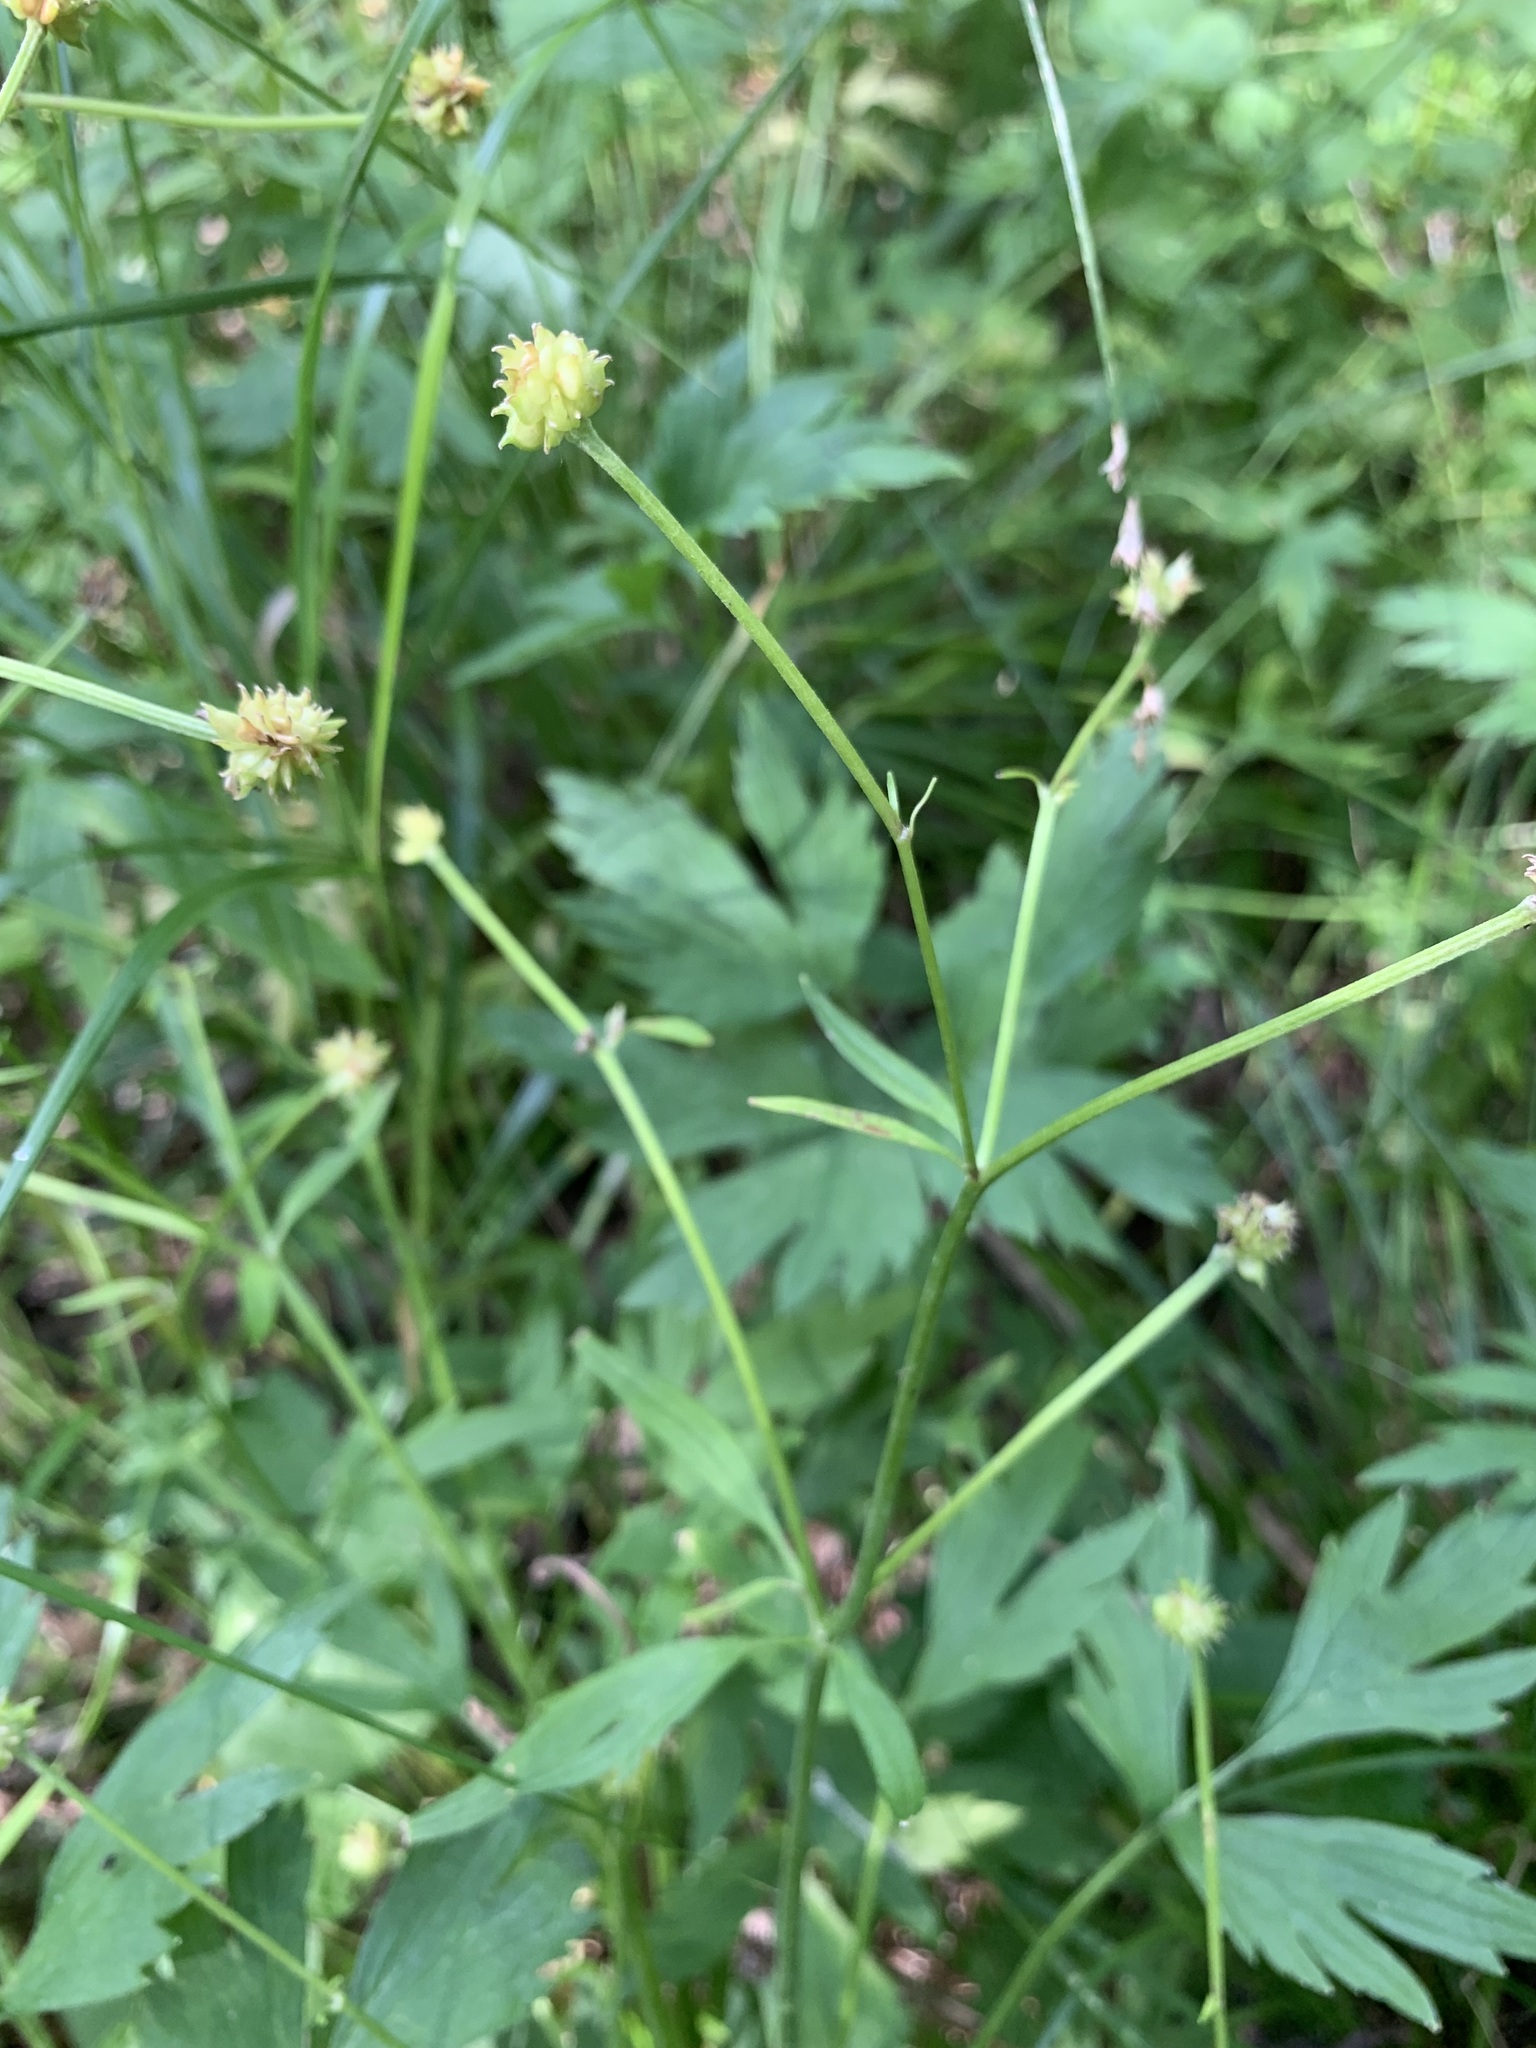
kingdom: Plantae
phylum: Tracheophyta
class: Magnoliopsida
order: Ranunculales
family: Ranunculaceae
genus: Ranunculus
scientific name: Ranunculus repens
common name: Creeping buttercup
